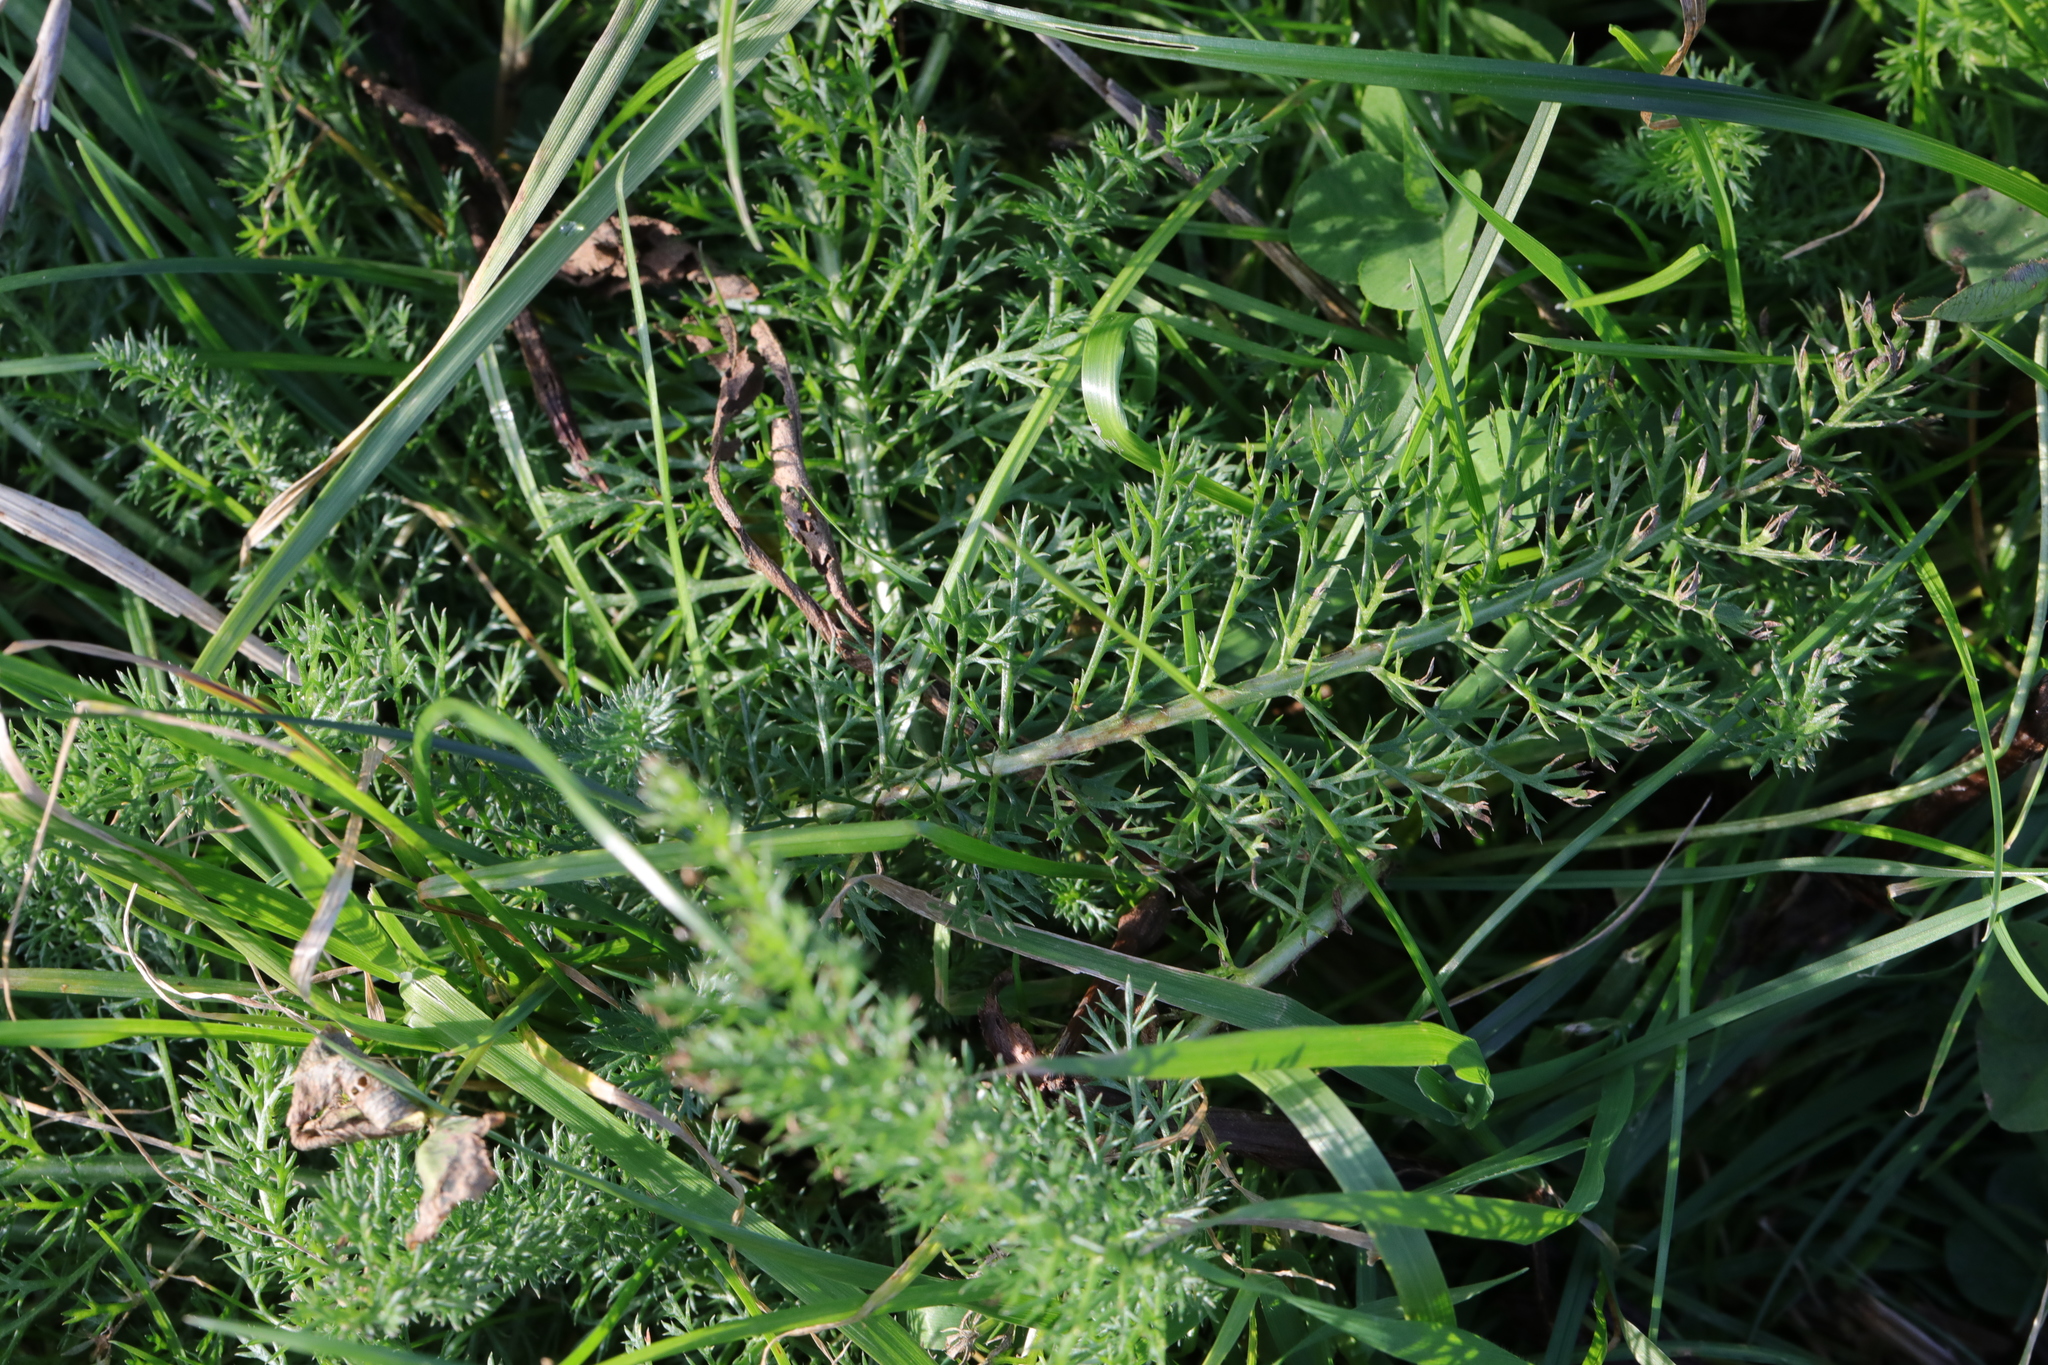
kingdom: Plantae
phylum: Tracheophyta
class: Magnoliopsida
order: Asterales
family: Asteraceae
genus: Achillea
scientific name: Achillea millefolium
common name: Yarrow
